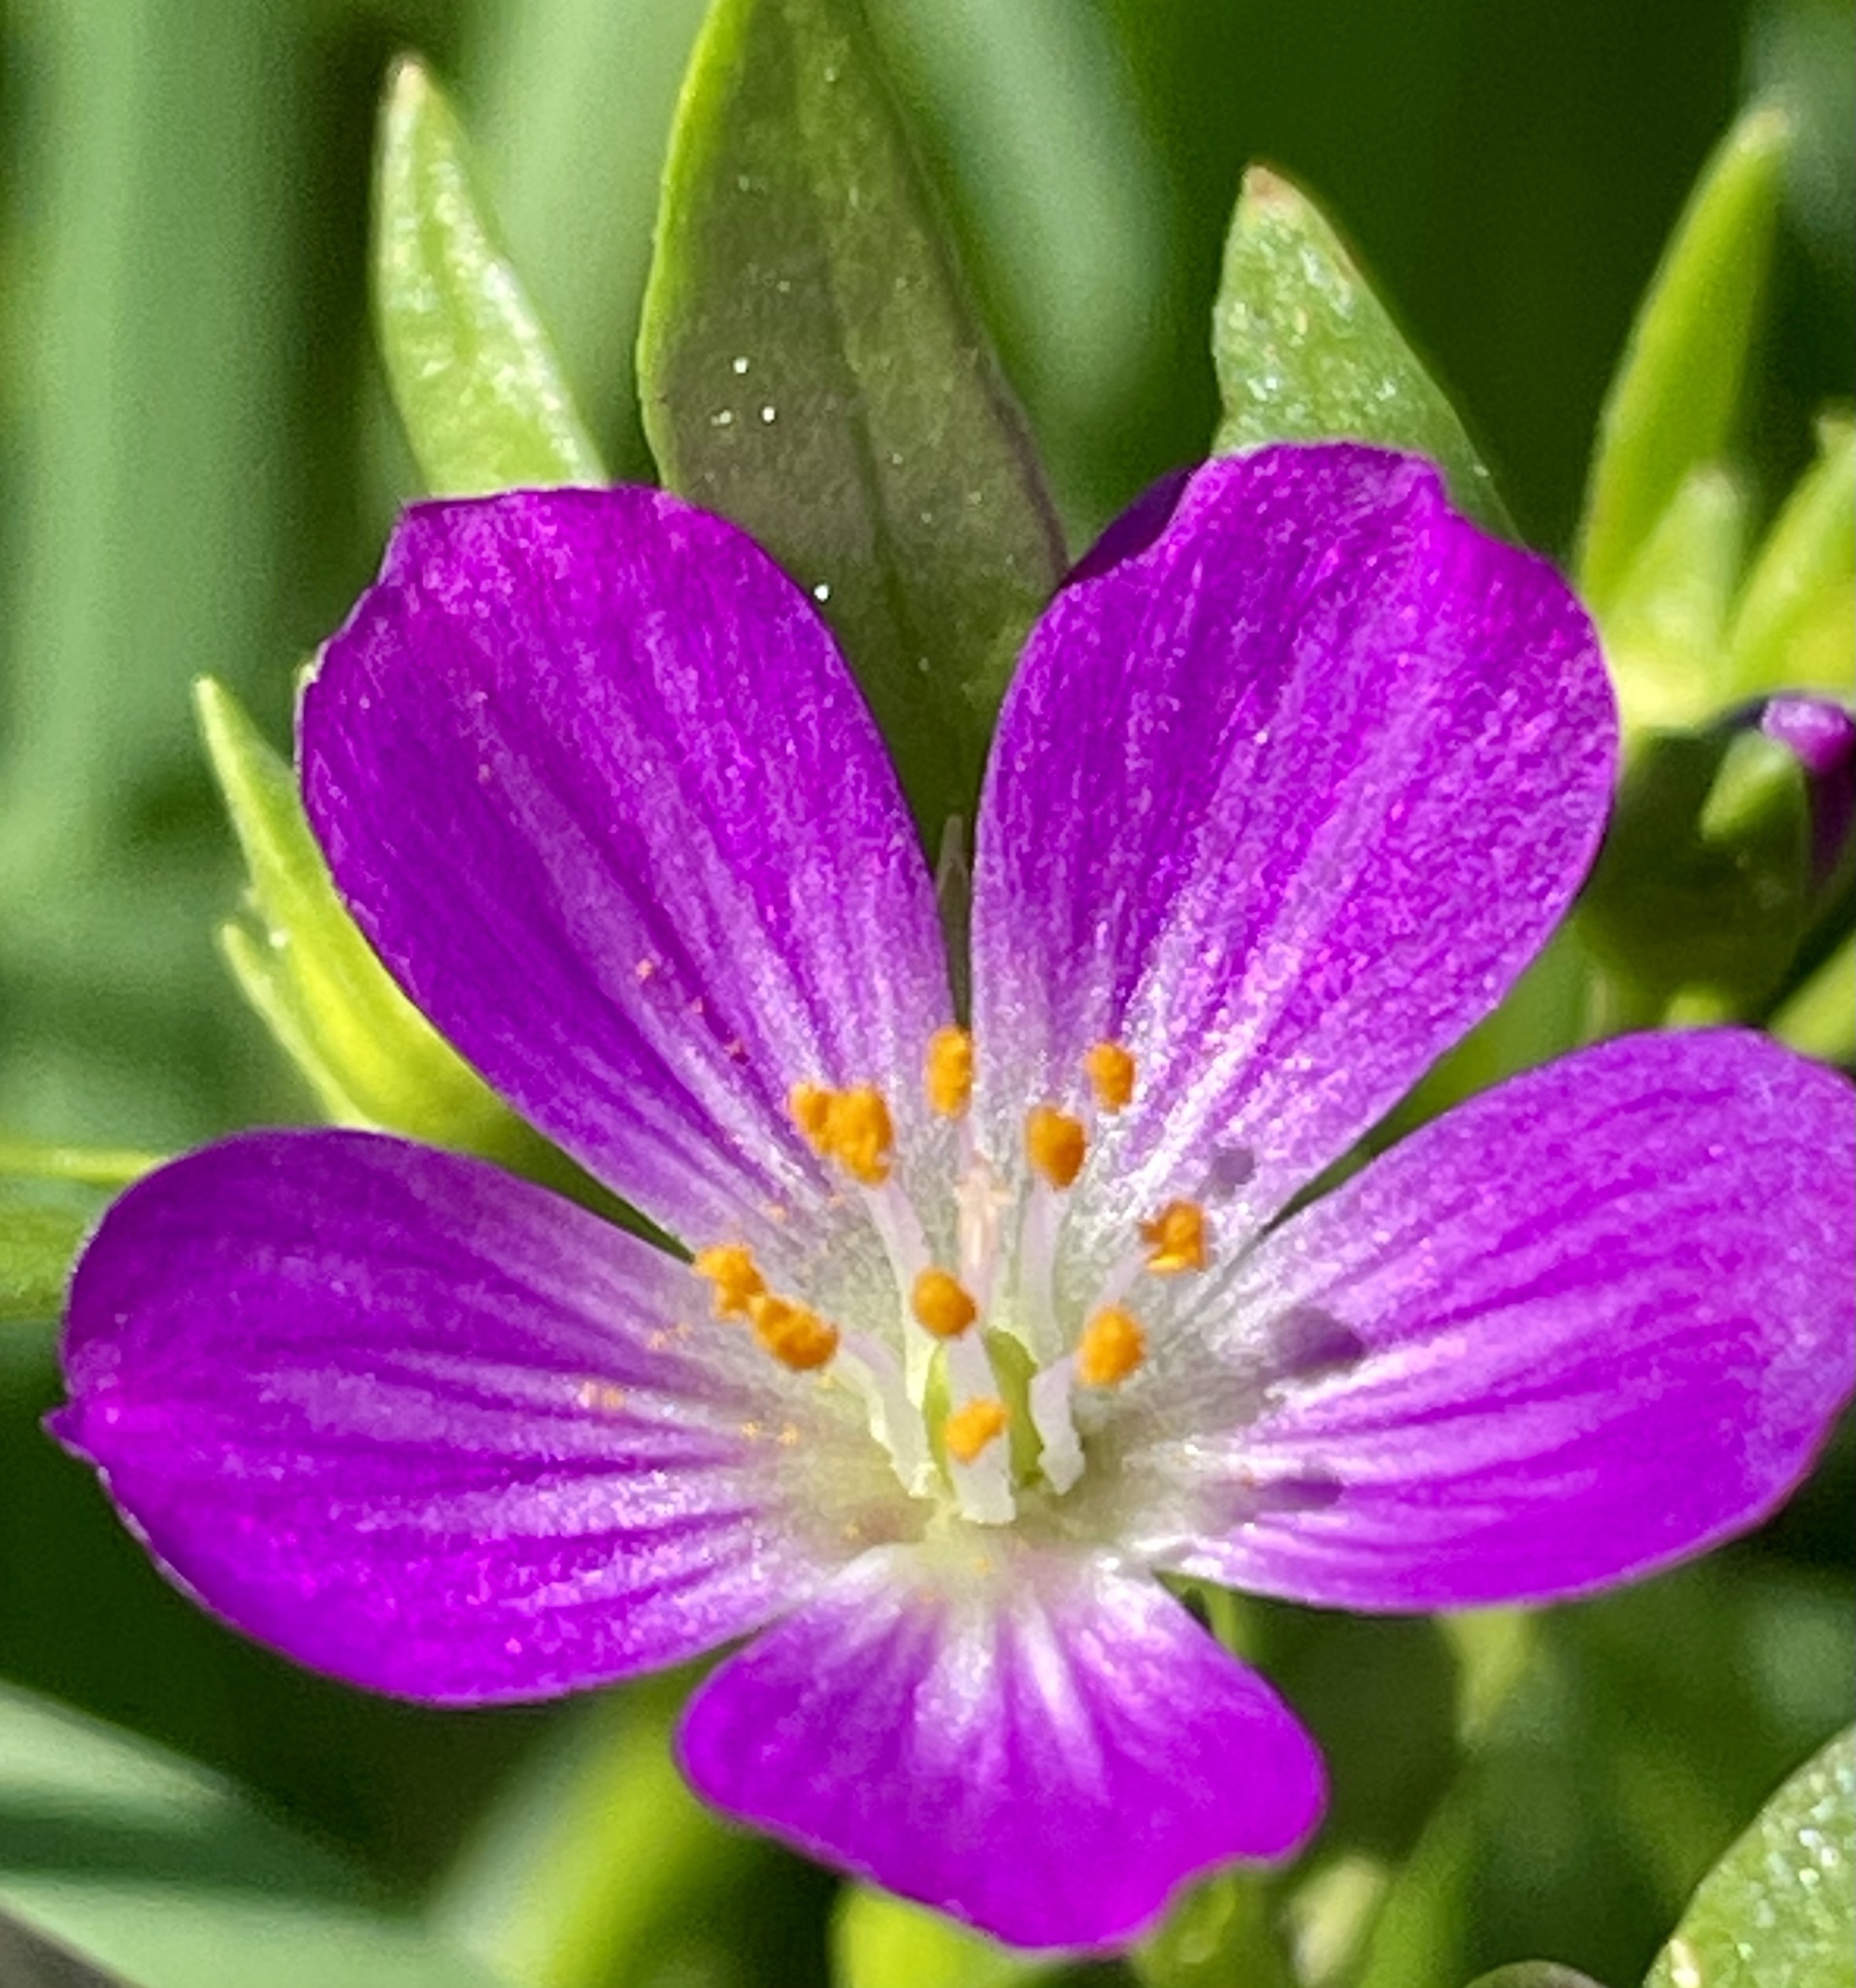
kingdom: Plantae
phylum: Tracheophyta
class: Magnoliopsida
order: Caryophyllales
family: Montiaceae
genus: Calandrinia
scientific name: Calandrinia menziesii
